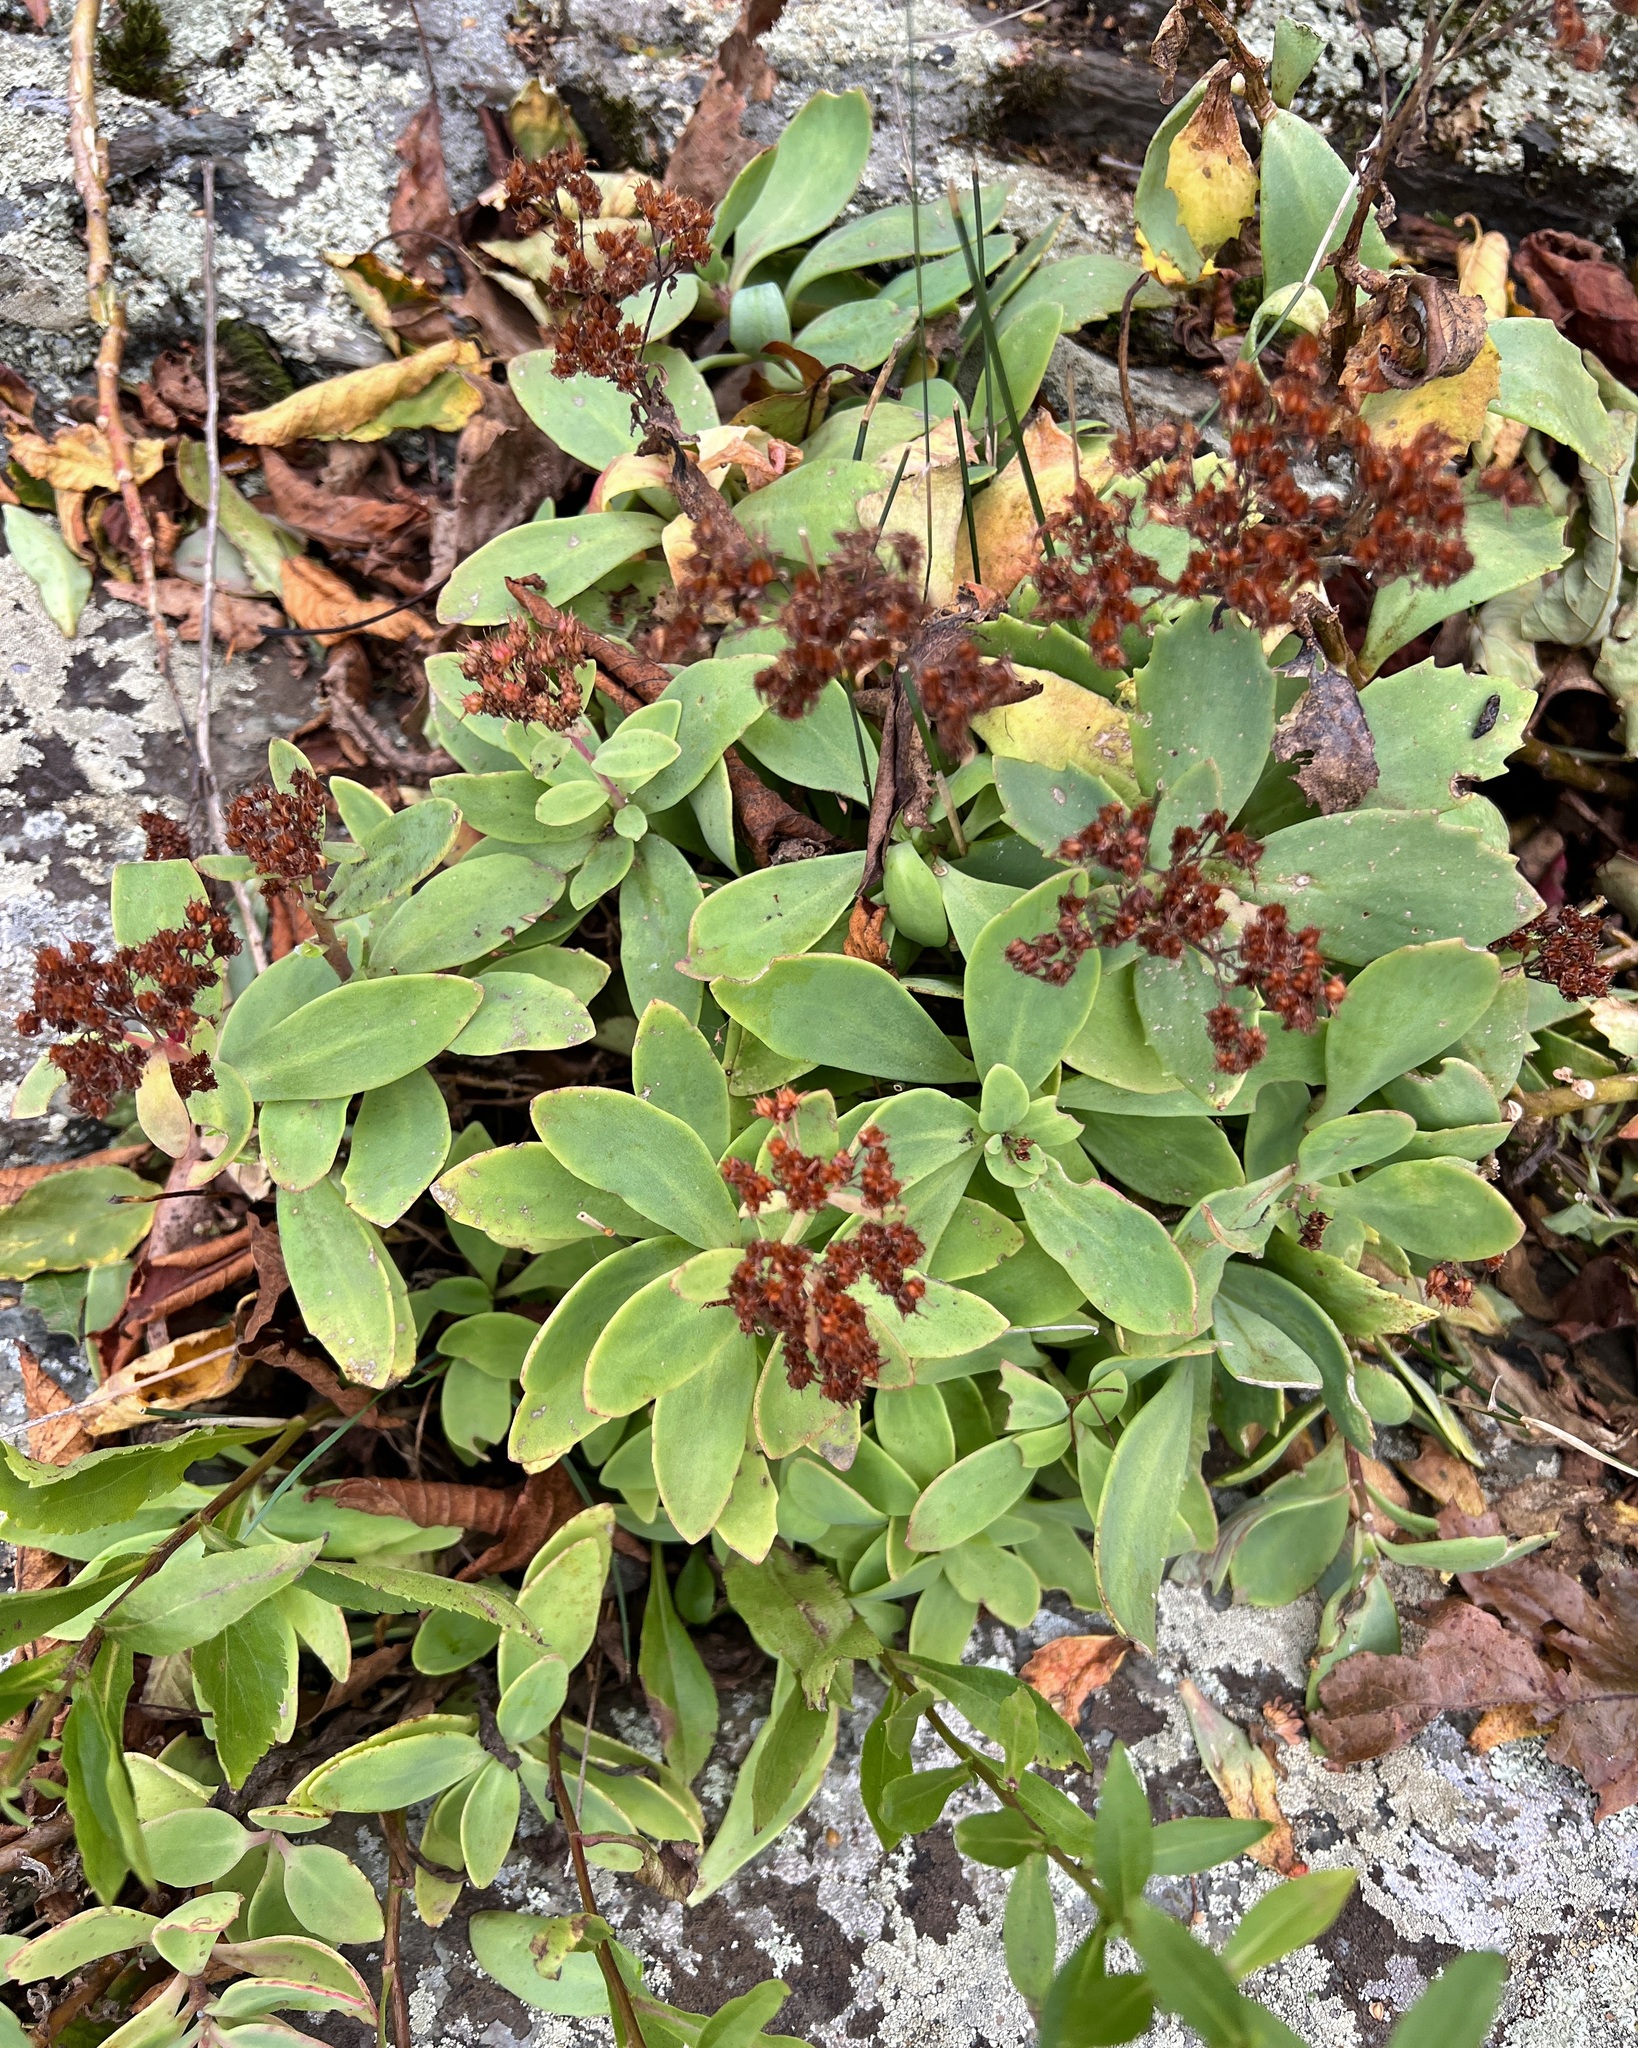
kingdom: Plantae
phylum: Tracheophyta
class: Magnoliopsida
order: Saxifragales
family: Crassulaceae
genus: Hylotelephium
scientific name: Hylotelephium telephioides
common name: Allegheny stonecrop
